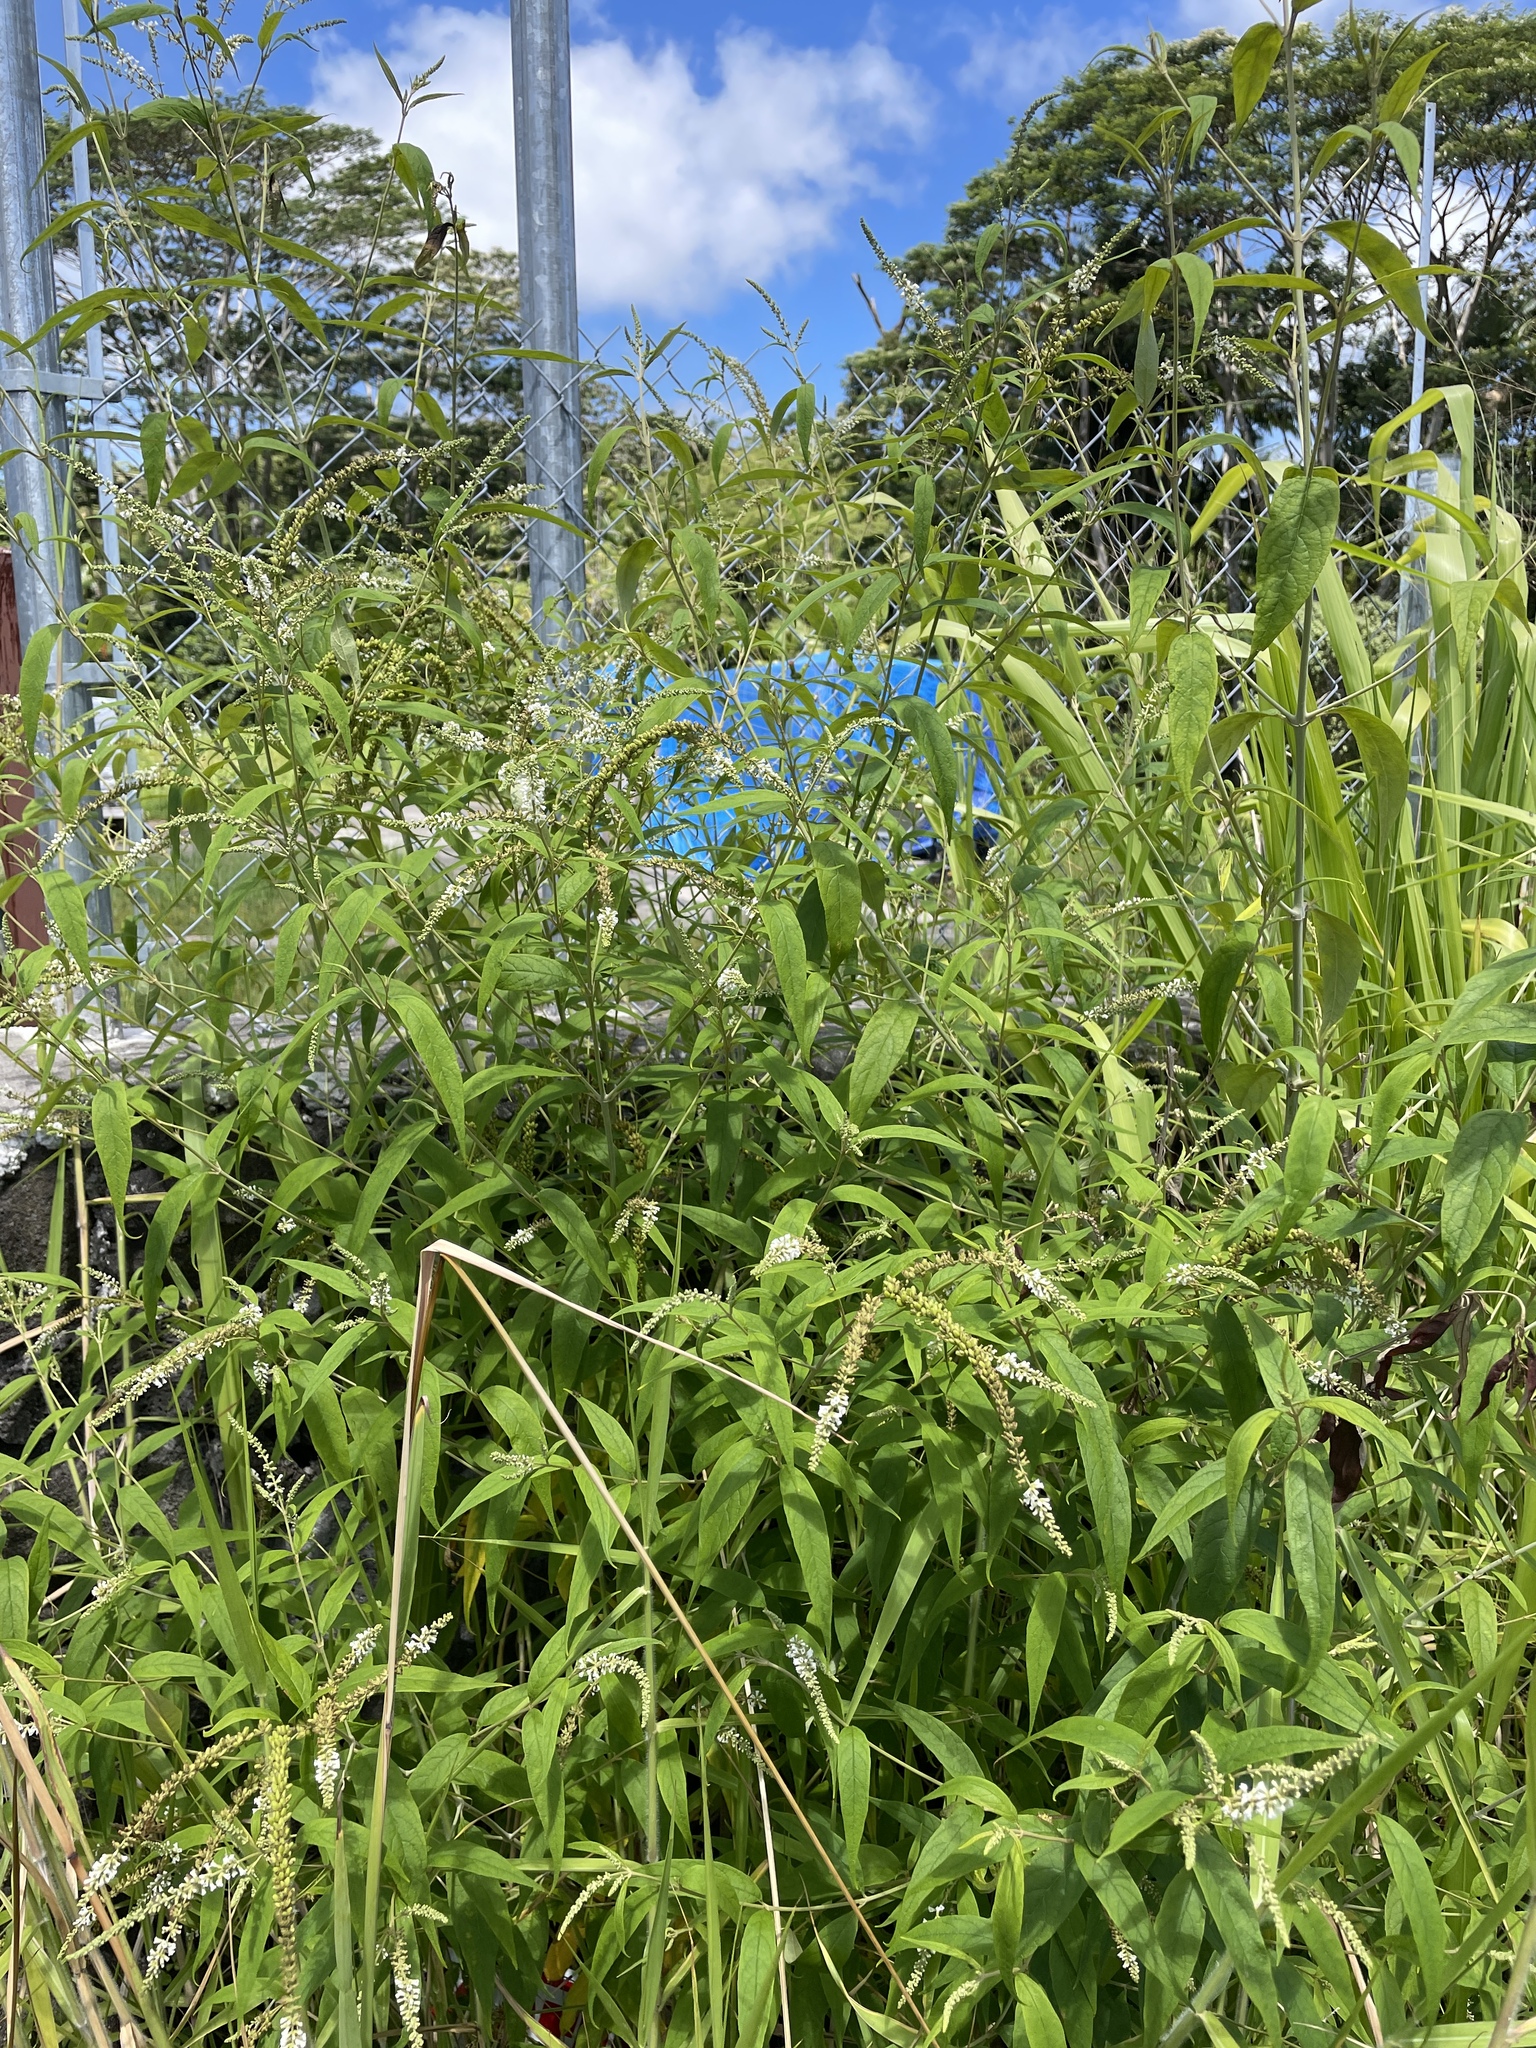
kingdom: Plantae
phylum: Tracheophyta
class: Magnoliopsida
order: Lamiales
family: Scrophulariaceae
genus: Buddleja
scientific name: Buddleja asiatica
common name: Dog tail
